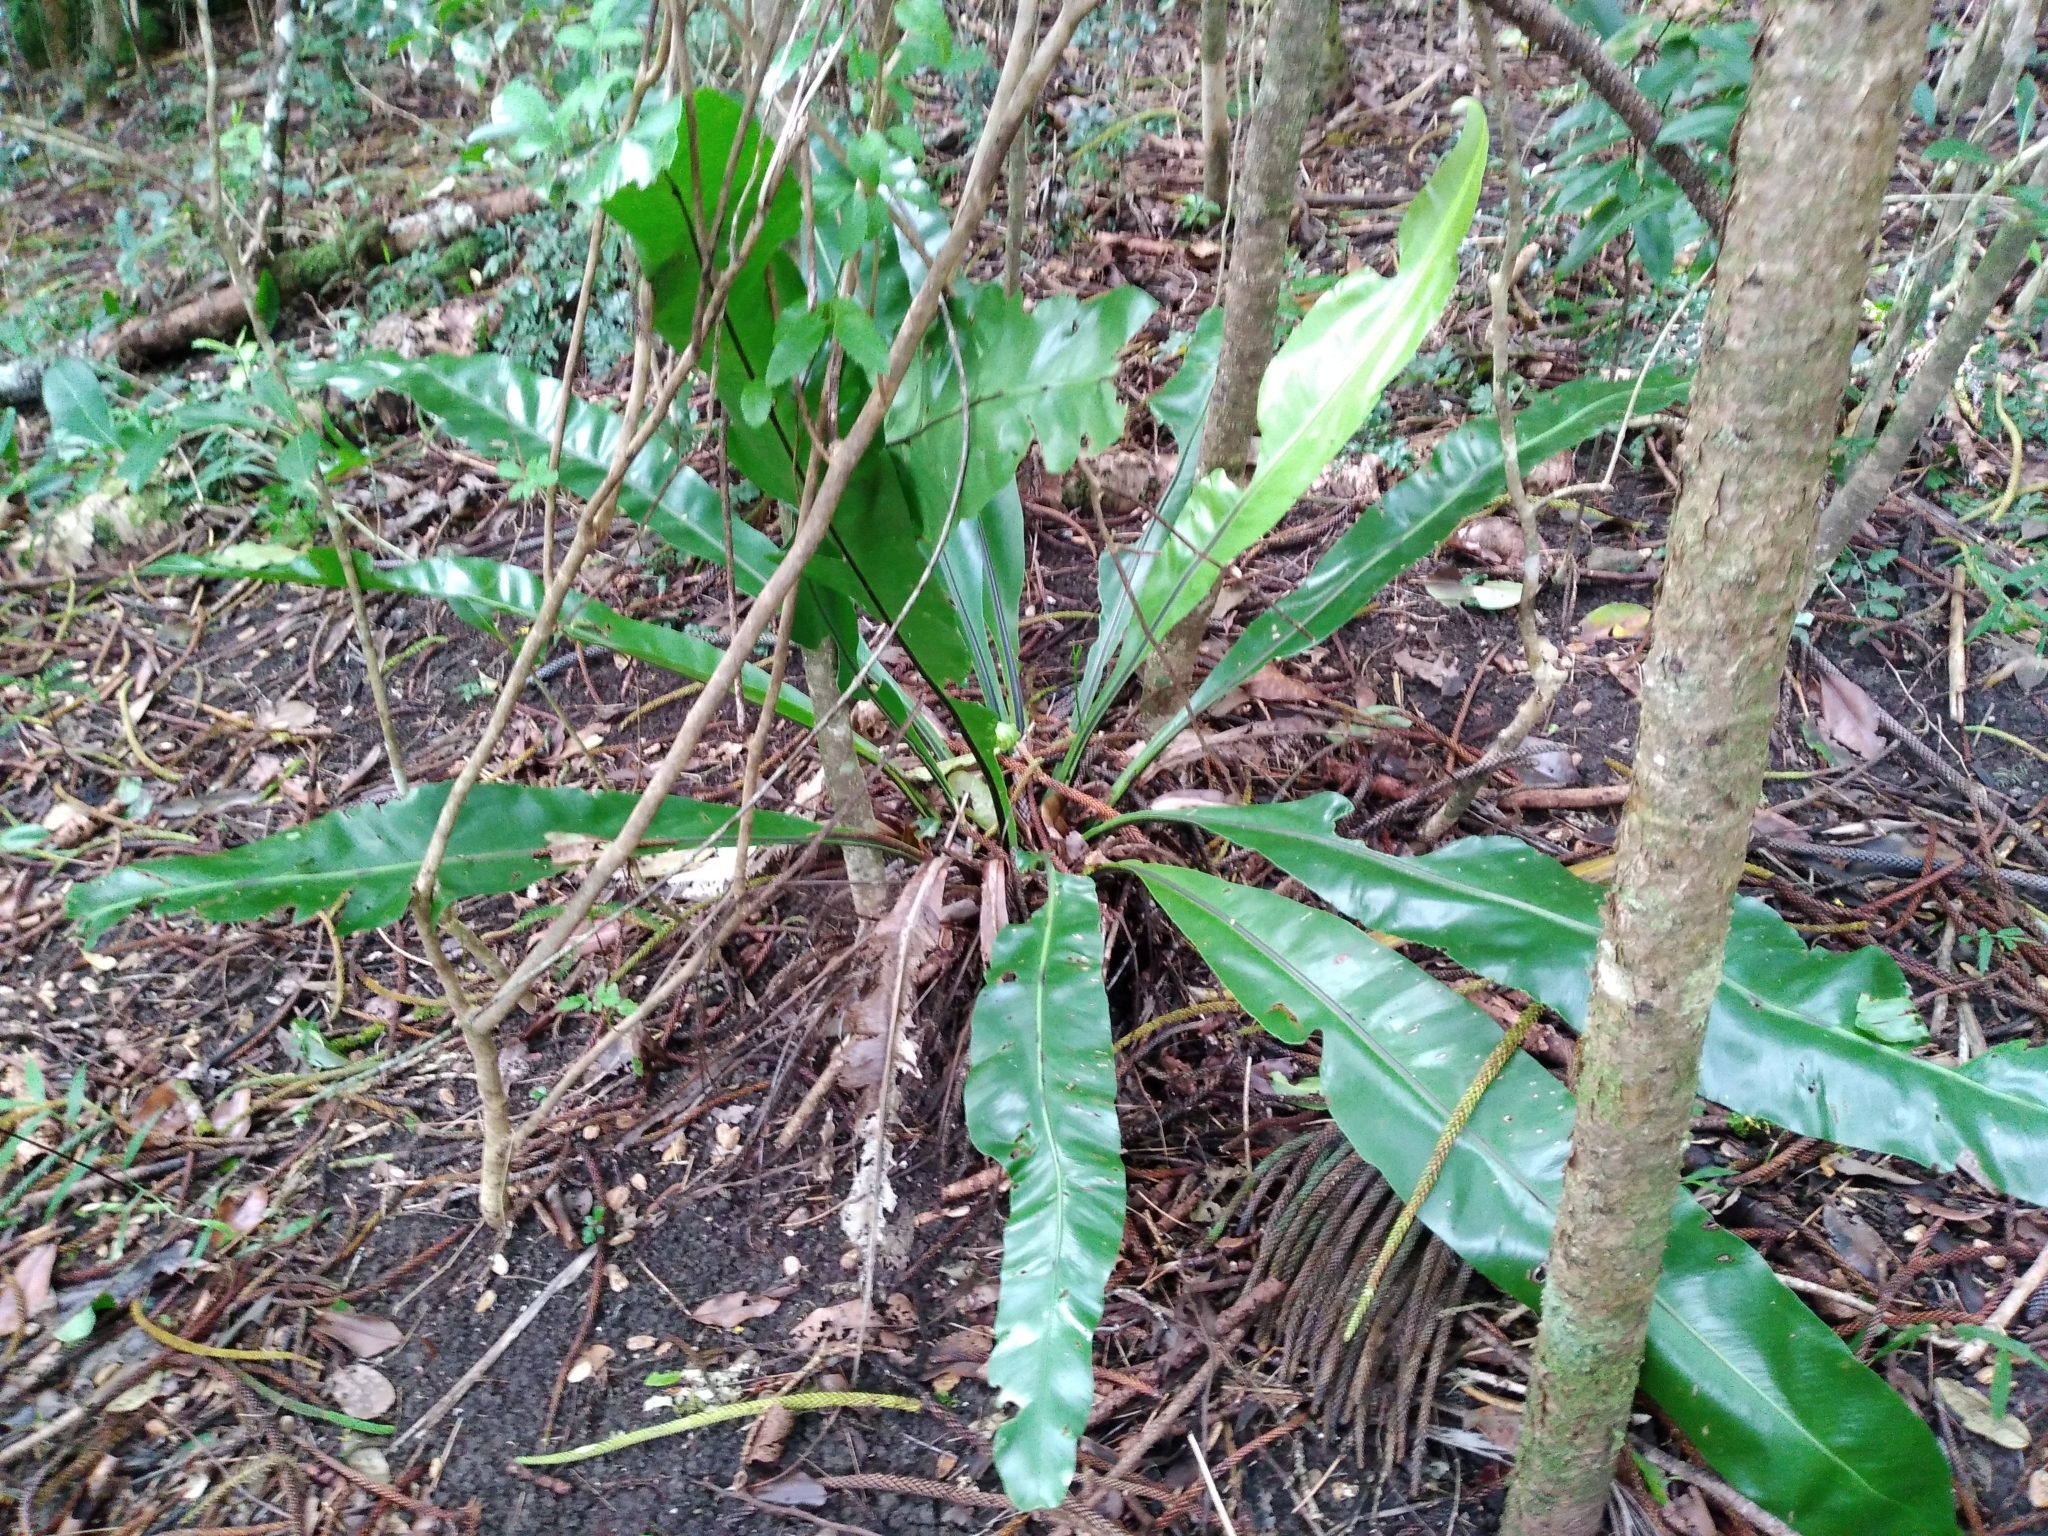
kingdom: Plantae
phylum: Tracheophyta
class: Polypodiopsida
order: Polypodiales
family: Aspleniaceae
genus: Asplenium
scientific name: Asplenium australasicum
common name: Bird's-nest fern
